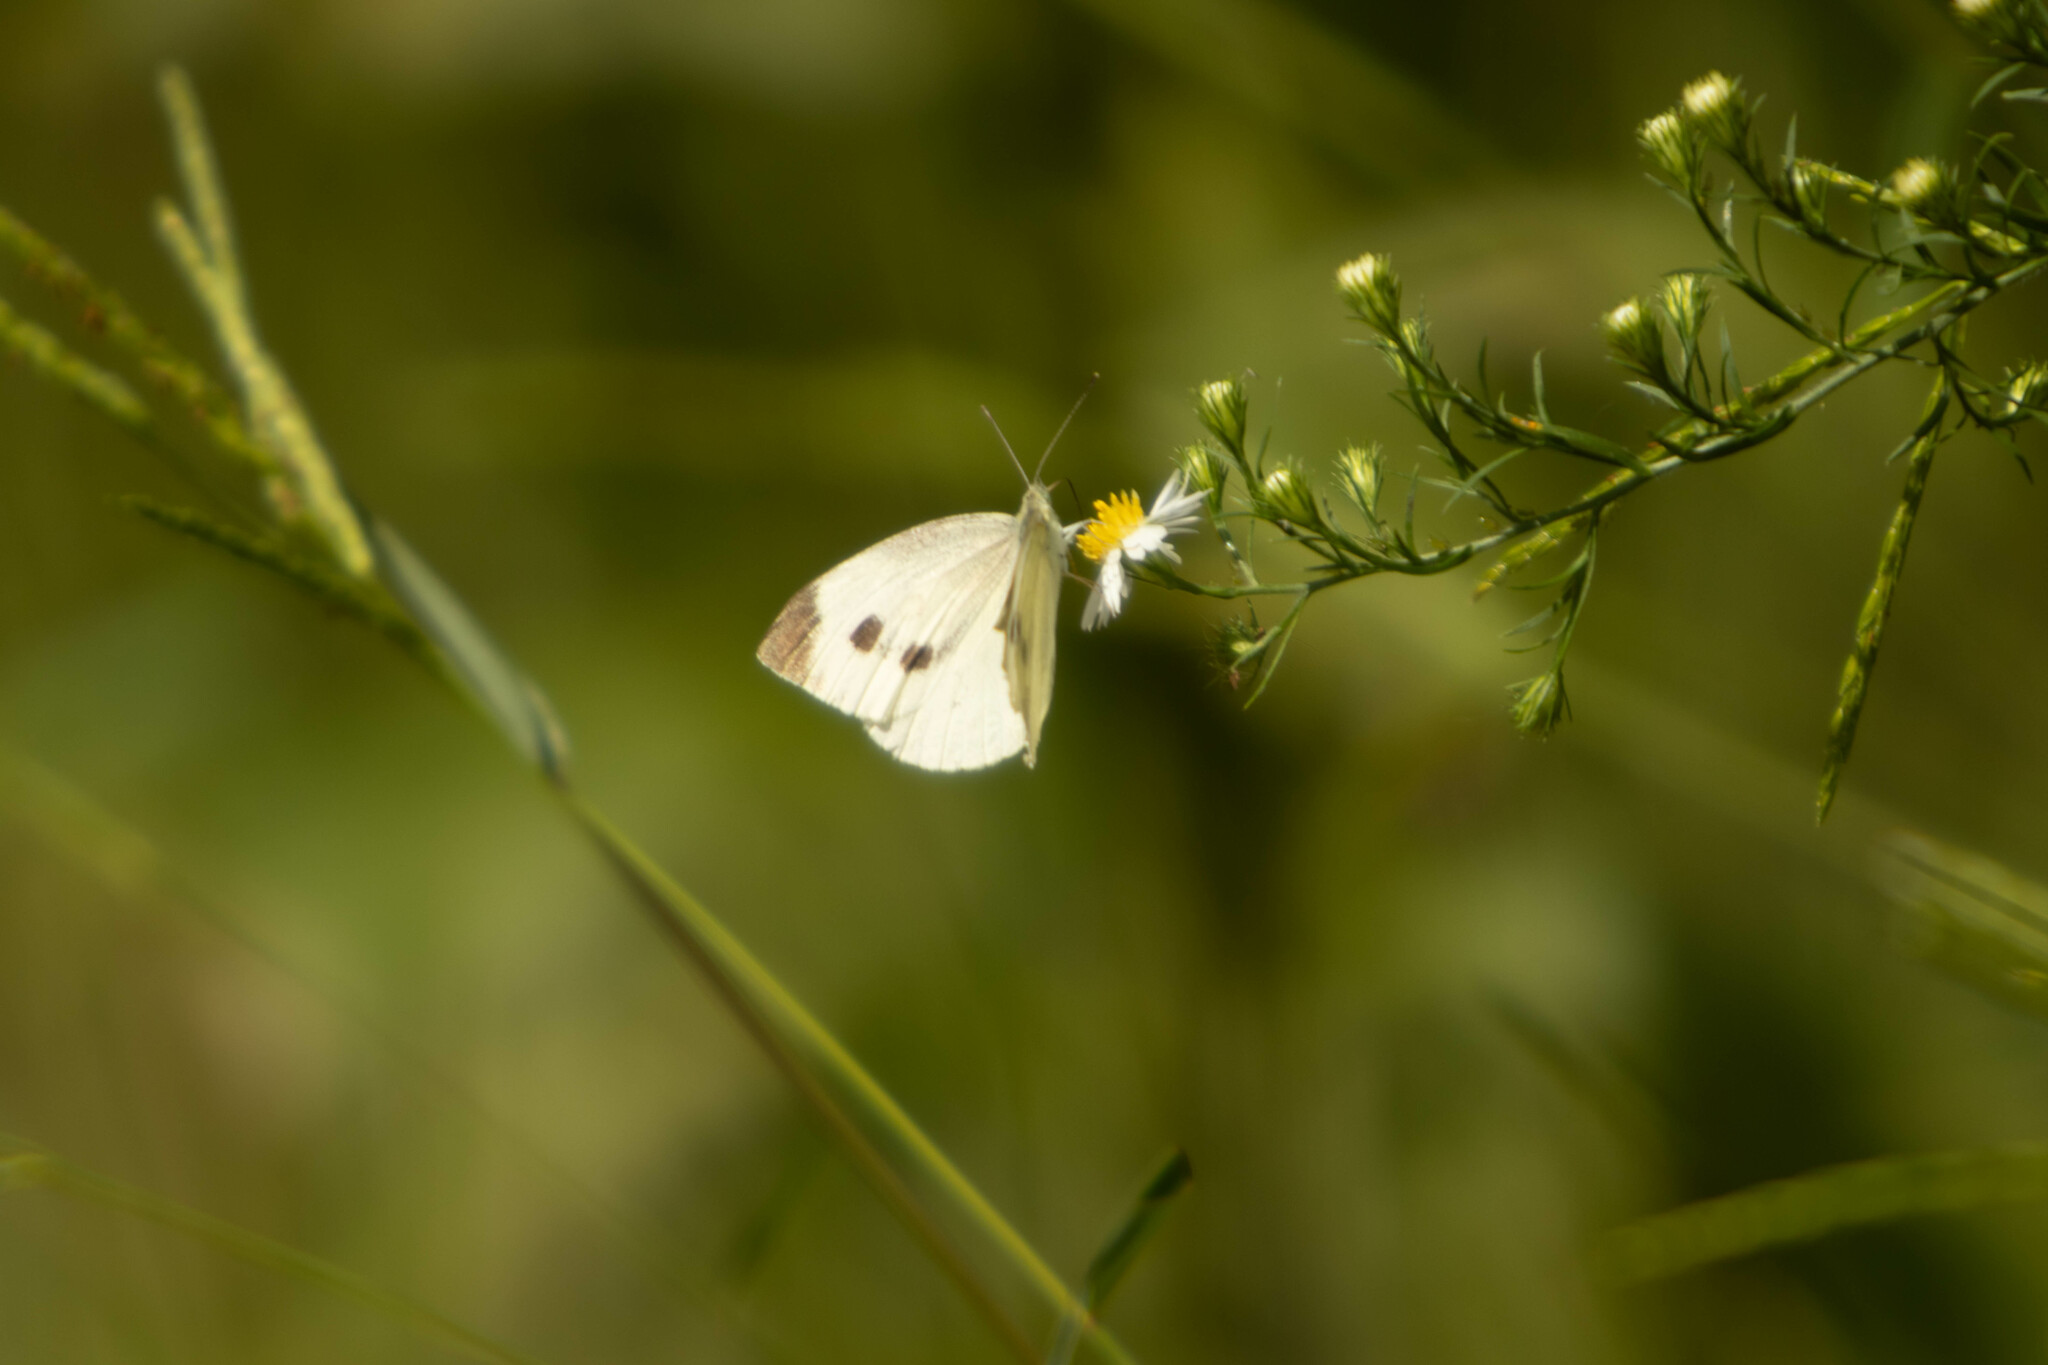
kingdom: Animalia
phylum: Arthropoda
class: Insecta
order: Lepidoptera
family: Pieridae
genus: Pieris
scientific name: Pieris rapae
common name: Small white
